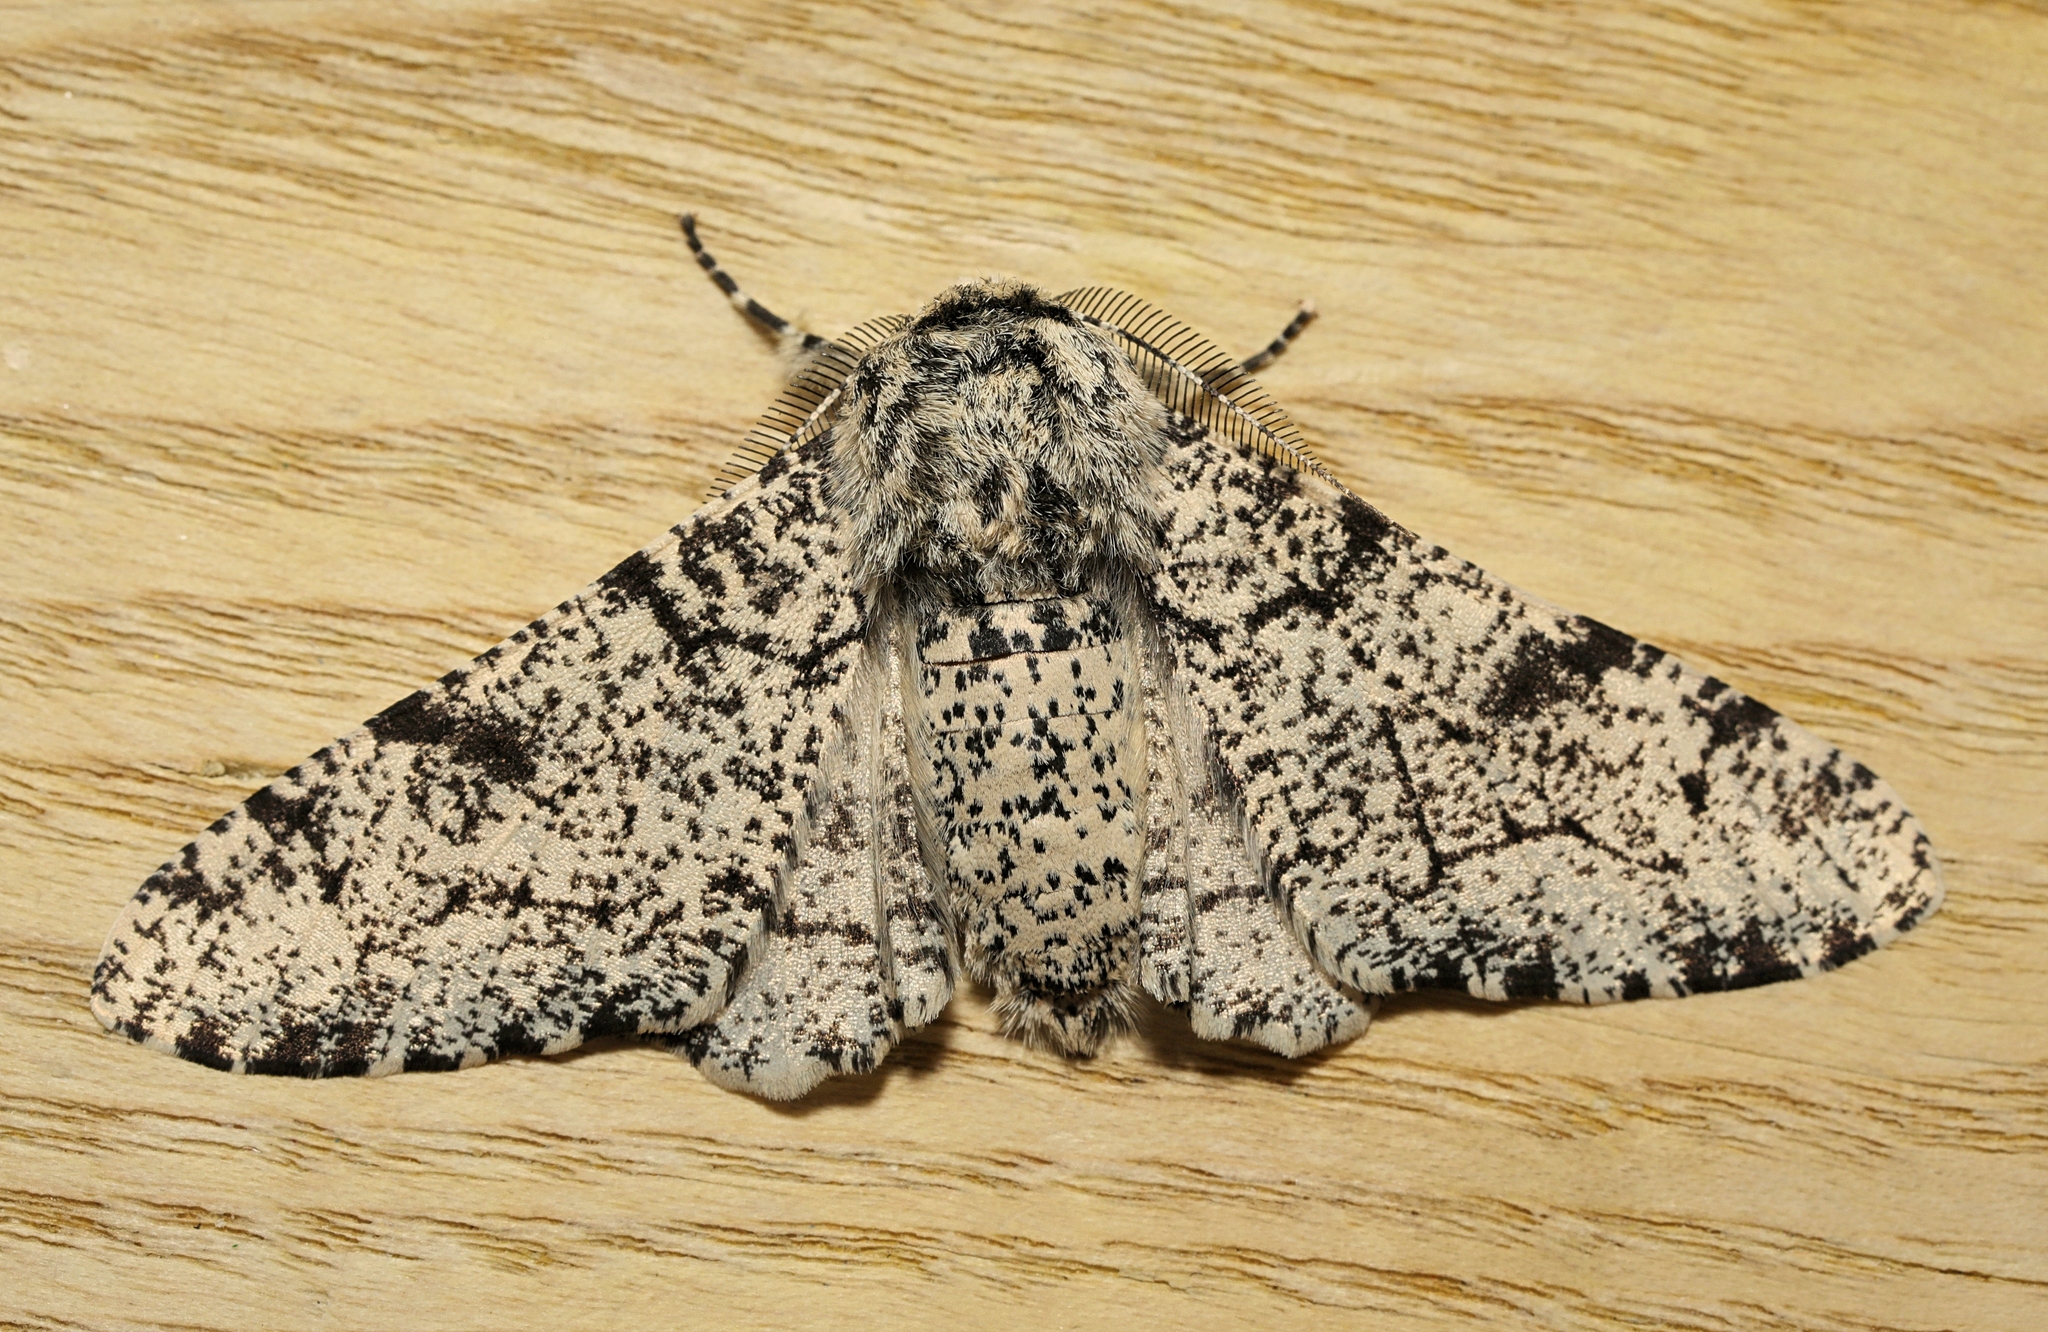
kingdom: Animalia
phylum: Arthropoda
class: Insecta
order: Lepidoptera
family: Geometridae
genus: Biston
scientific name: Biston betularia
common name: Peppered moth
